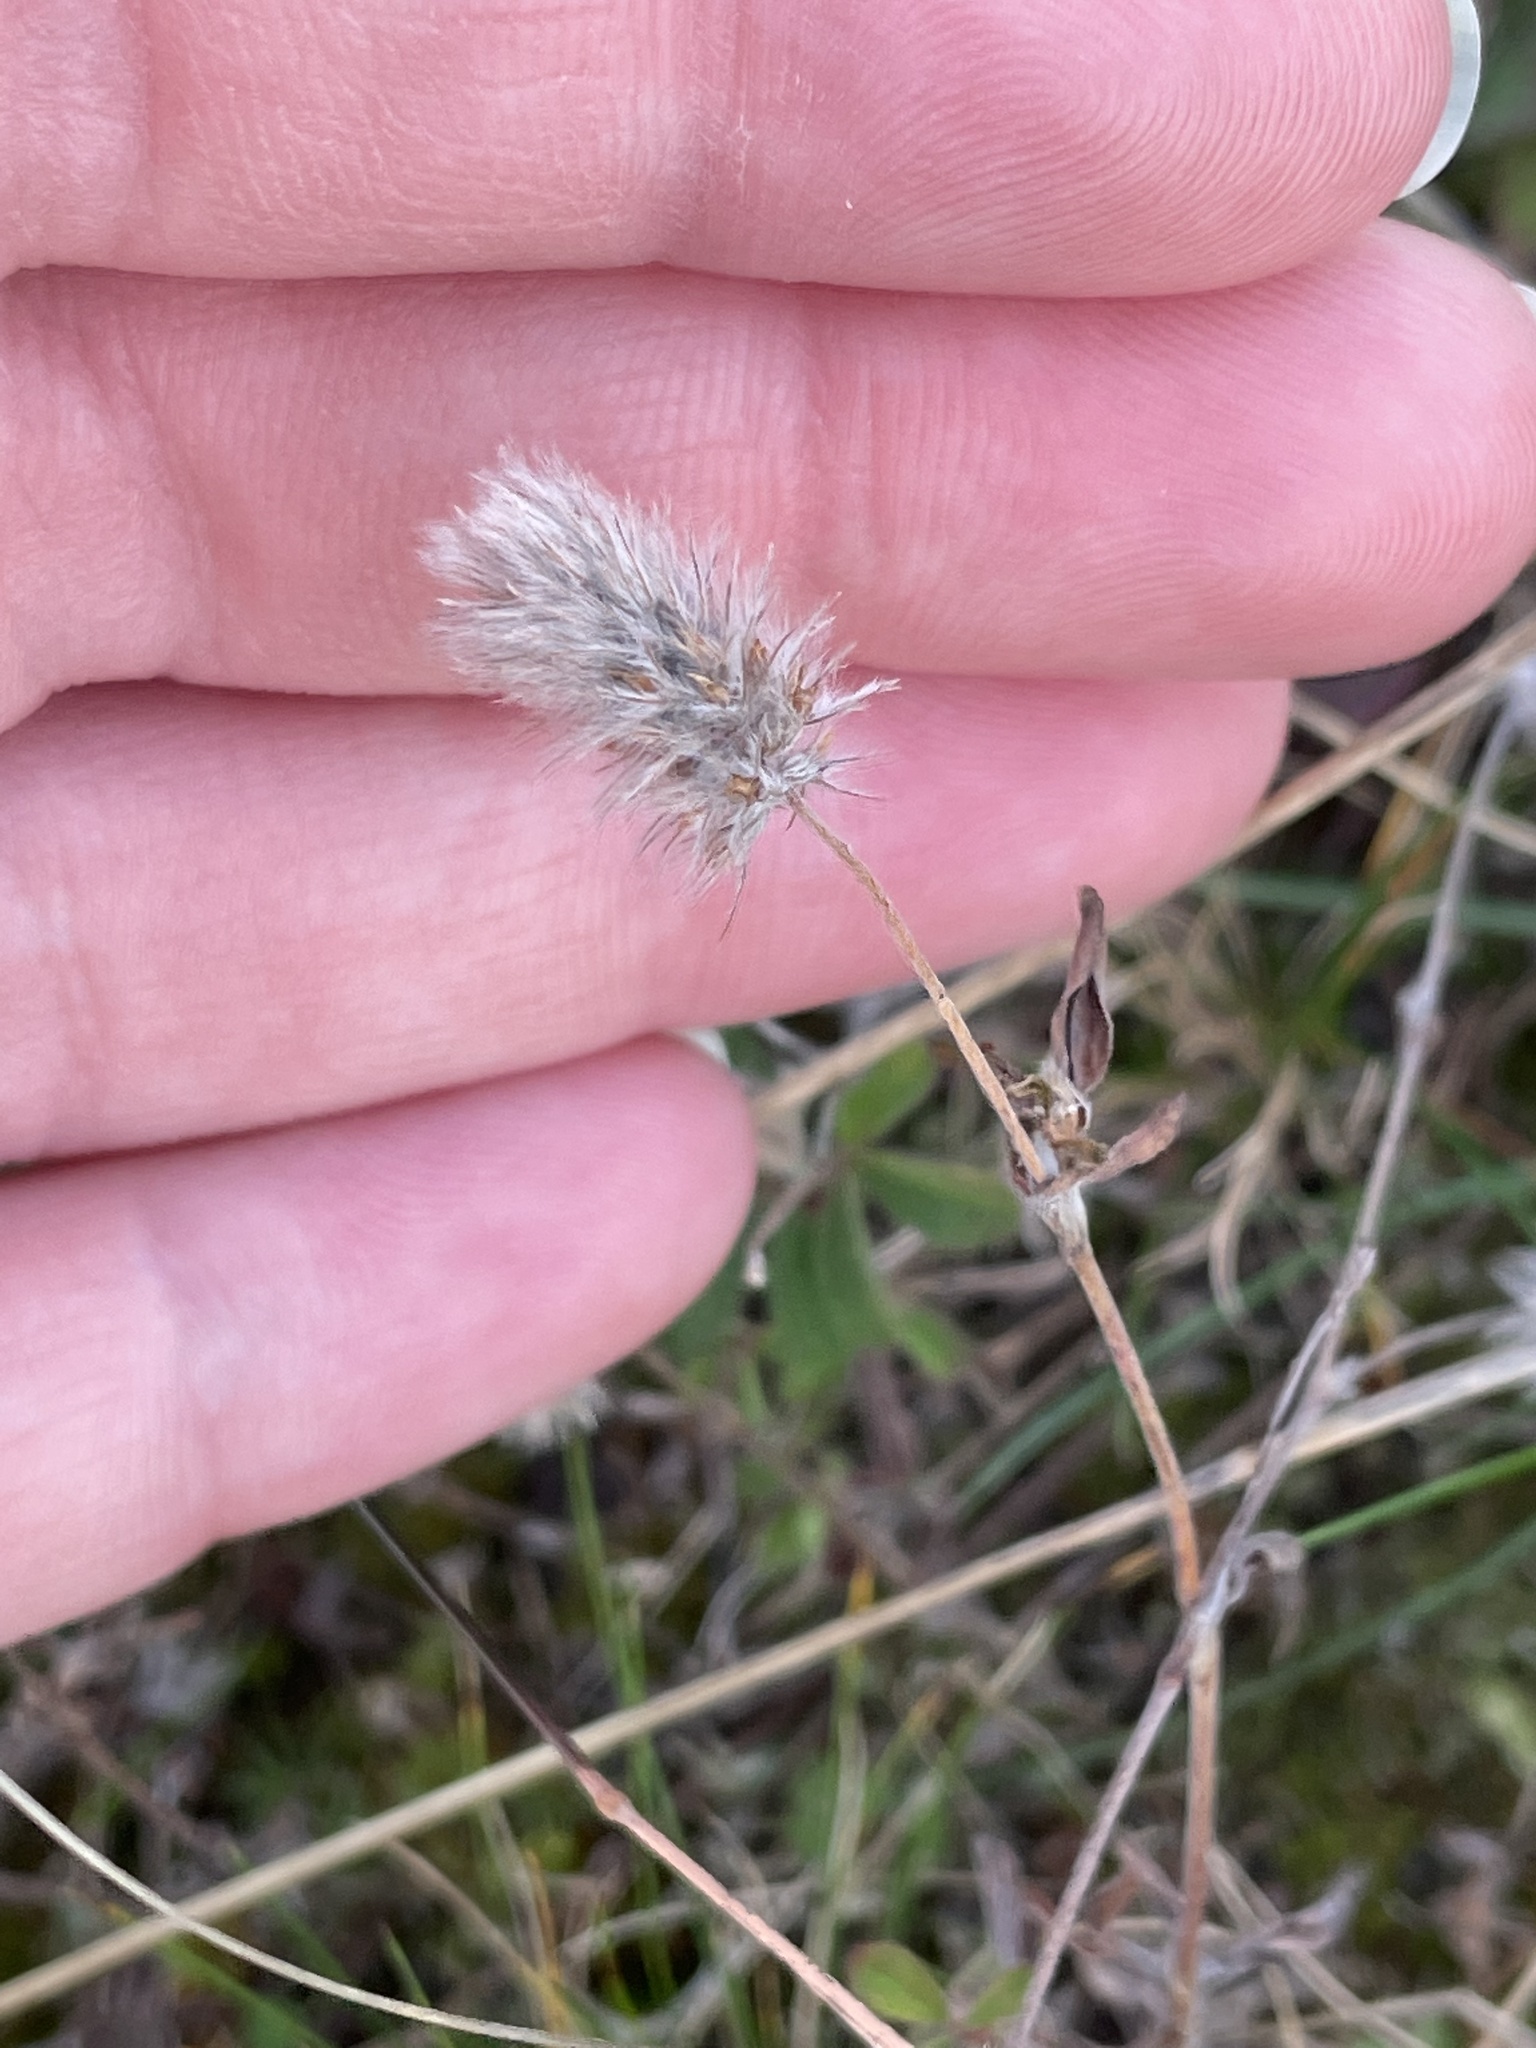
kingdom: Plantae
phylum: Tracheophyta
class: Magnoliopsida
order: Fabales
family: Fabaceae
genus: Trifolium
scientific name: Trifolium arvense
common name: Hare's-foot clover
